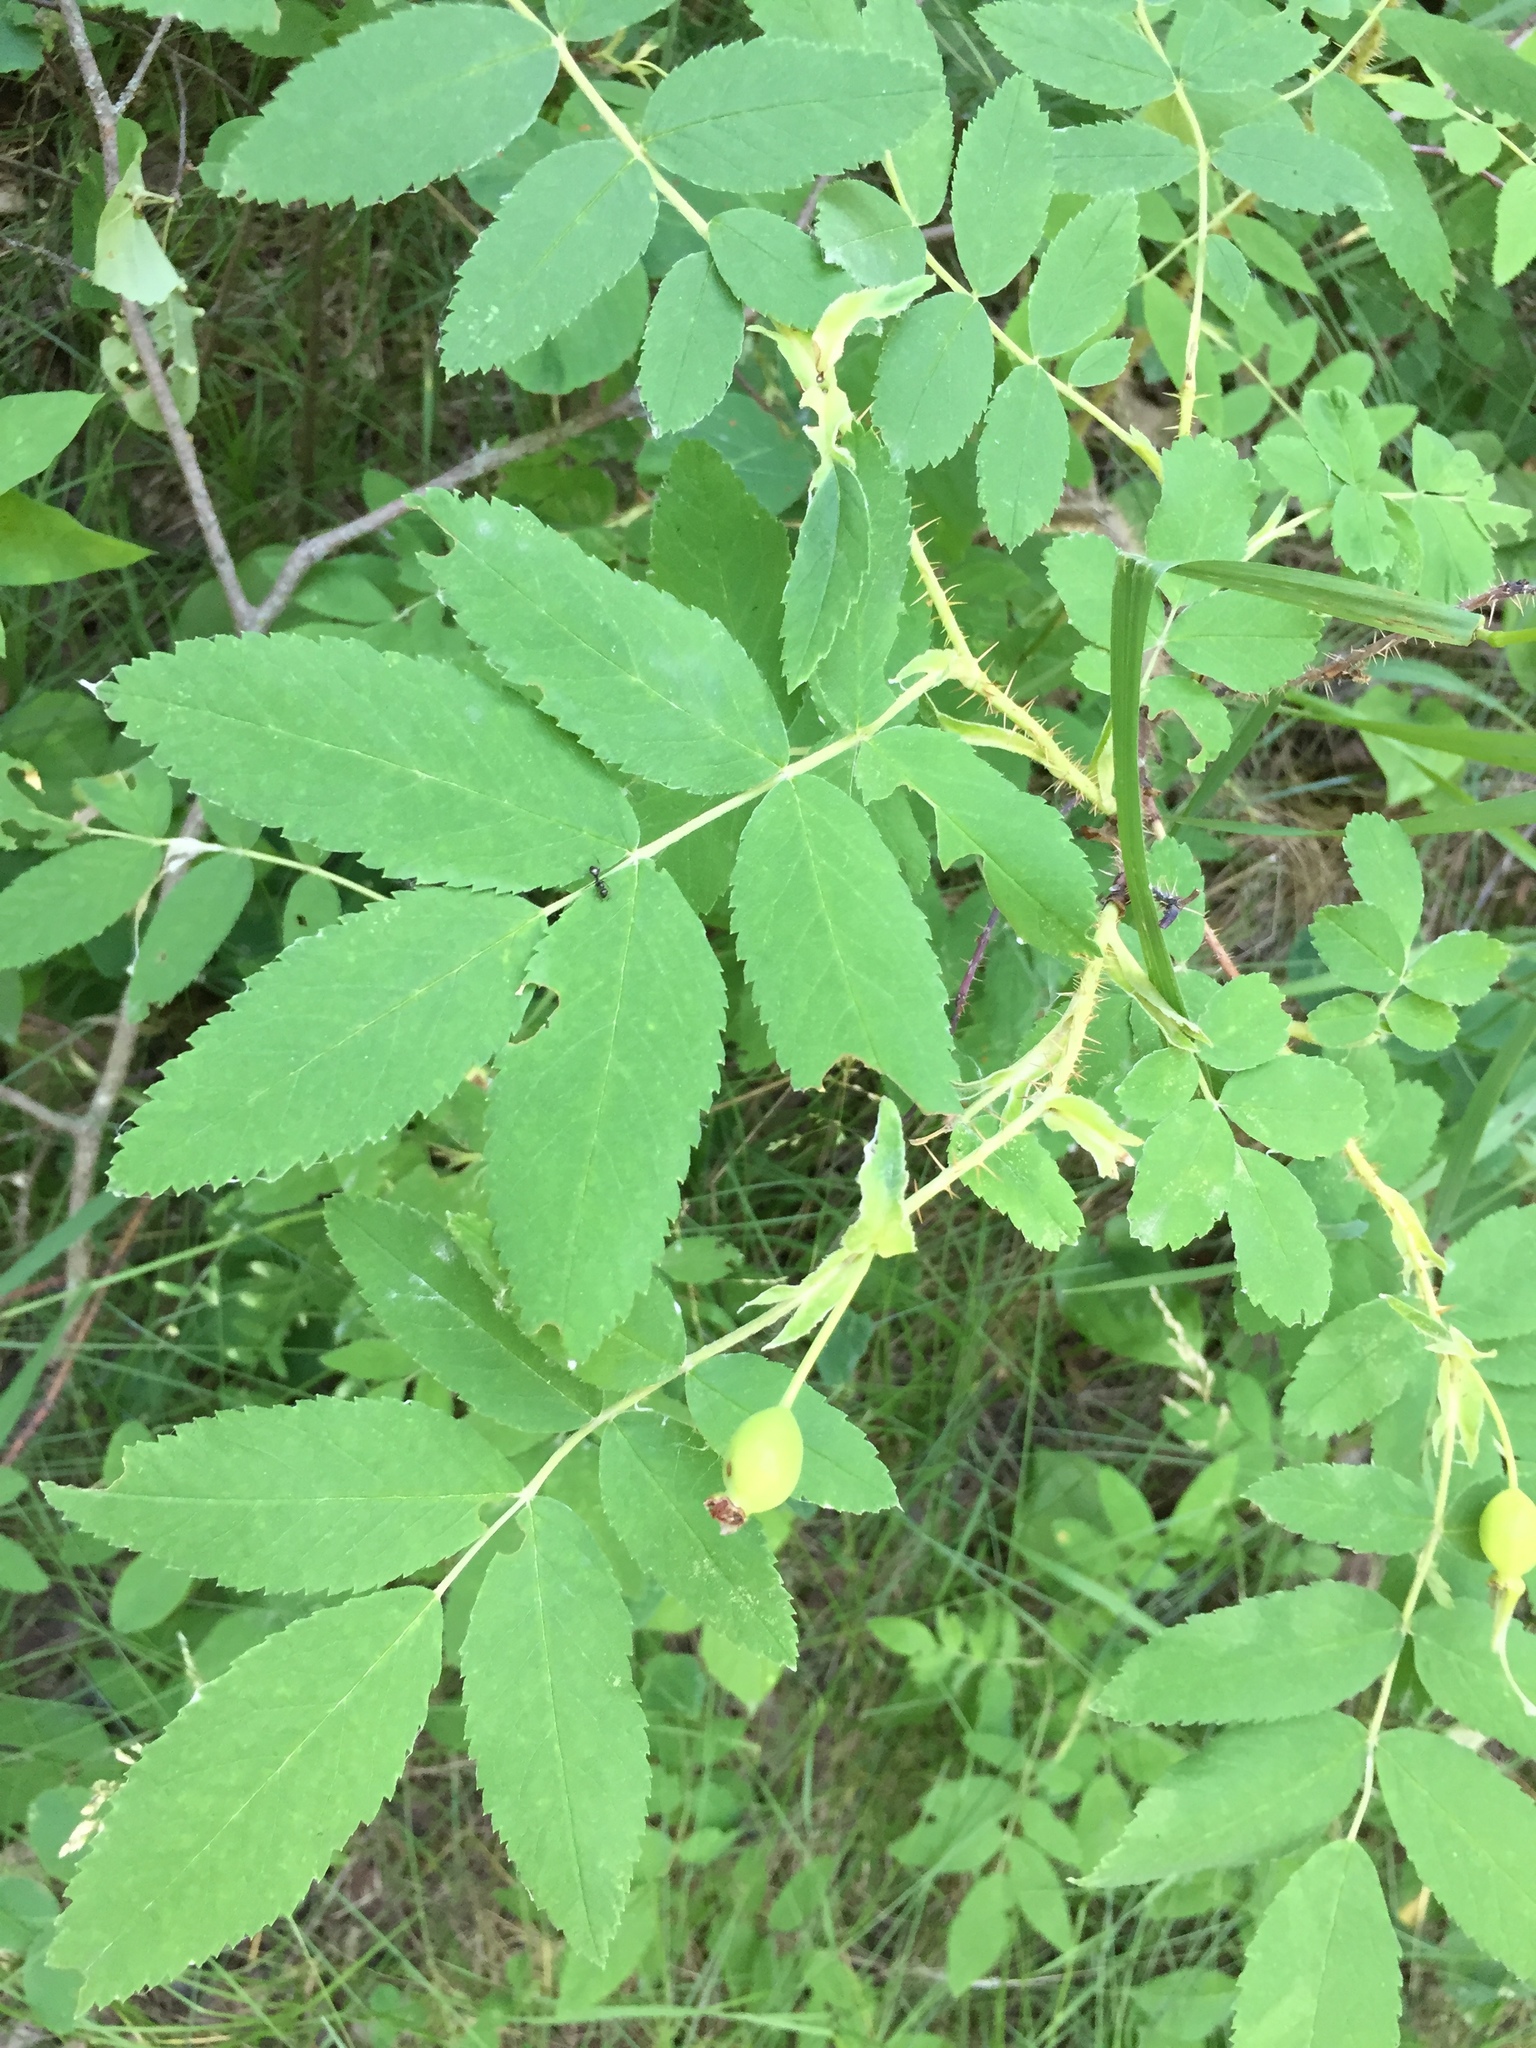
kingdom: Plantae
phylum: Tracheophyta
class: Magnoliopsida
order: Rosales
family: Rosaceae
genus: Rosa
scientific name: Rosa acicularis
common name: Prickly rose
